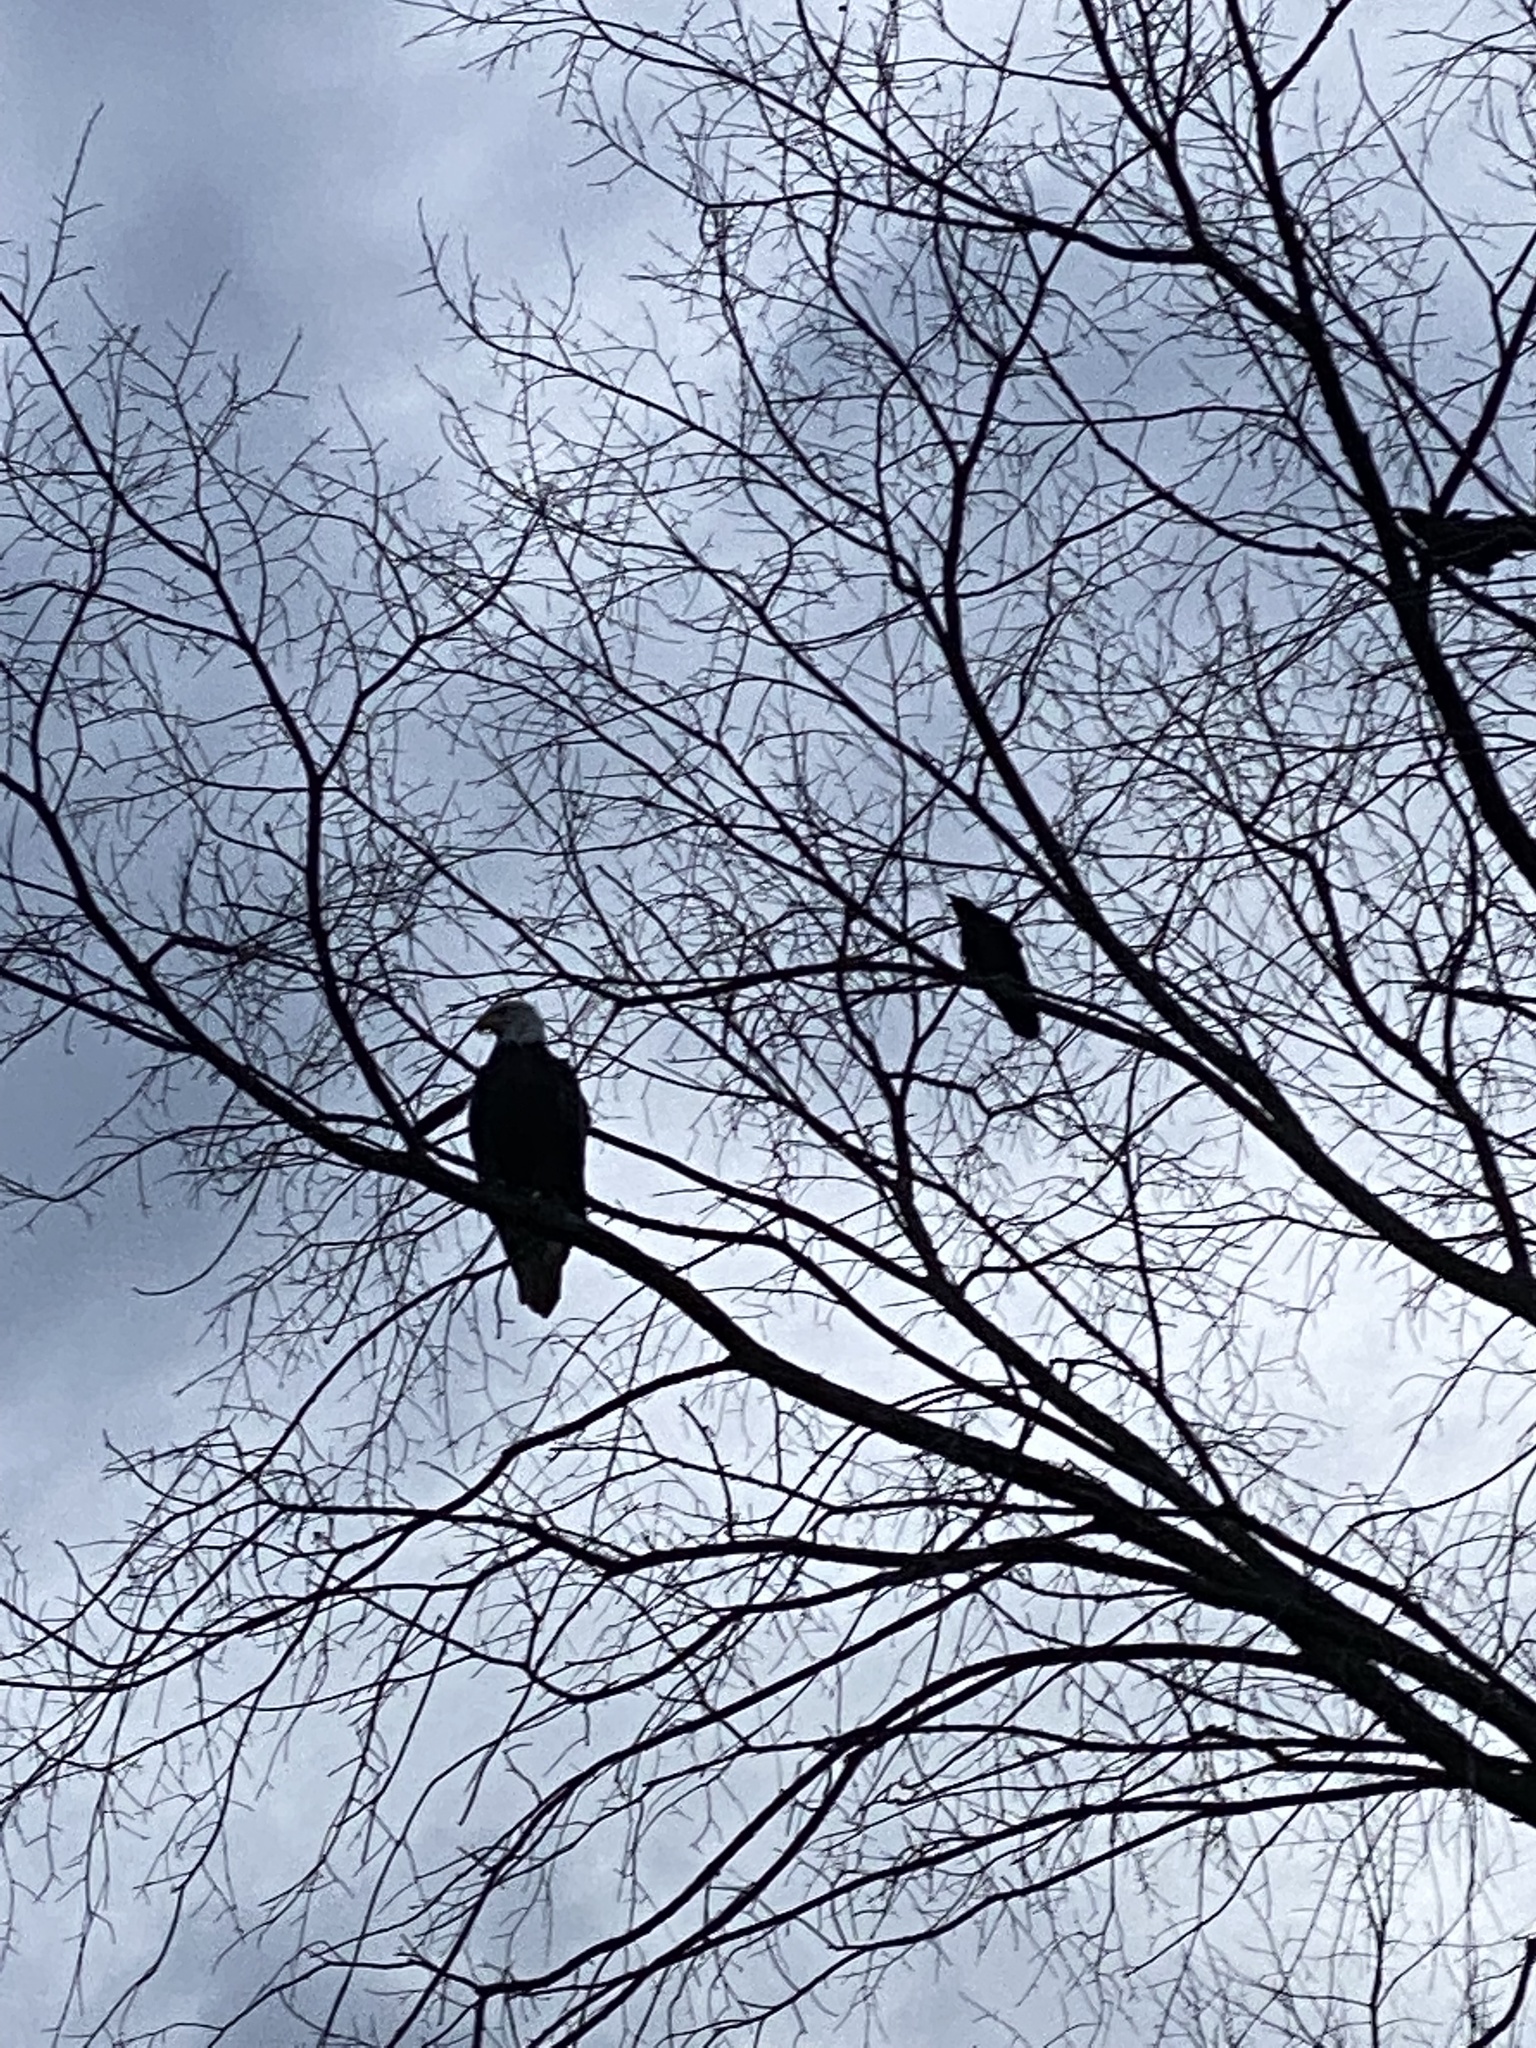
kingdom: Animalia
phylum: Chordata
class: Aves
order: Accipitriformes
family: Accipitridae
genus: Haliaeetus
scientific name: Haliaeetus leucocephalus
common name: Bald eagle
